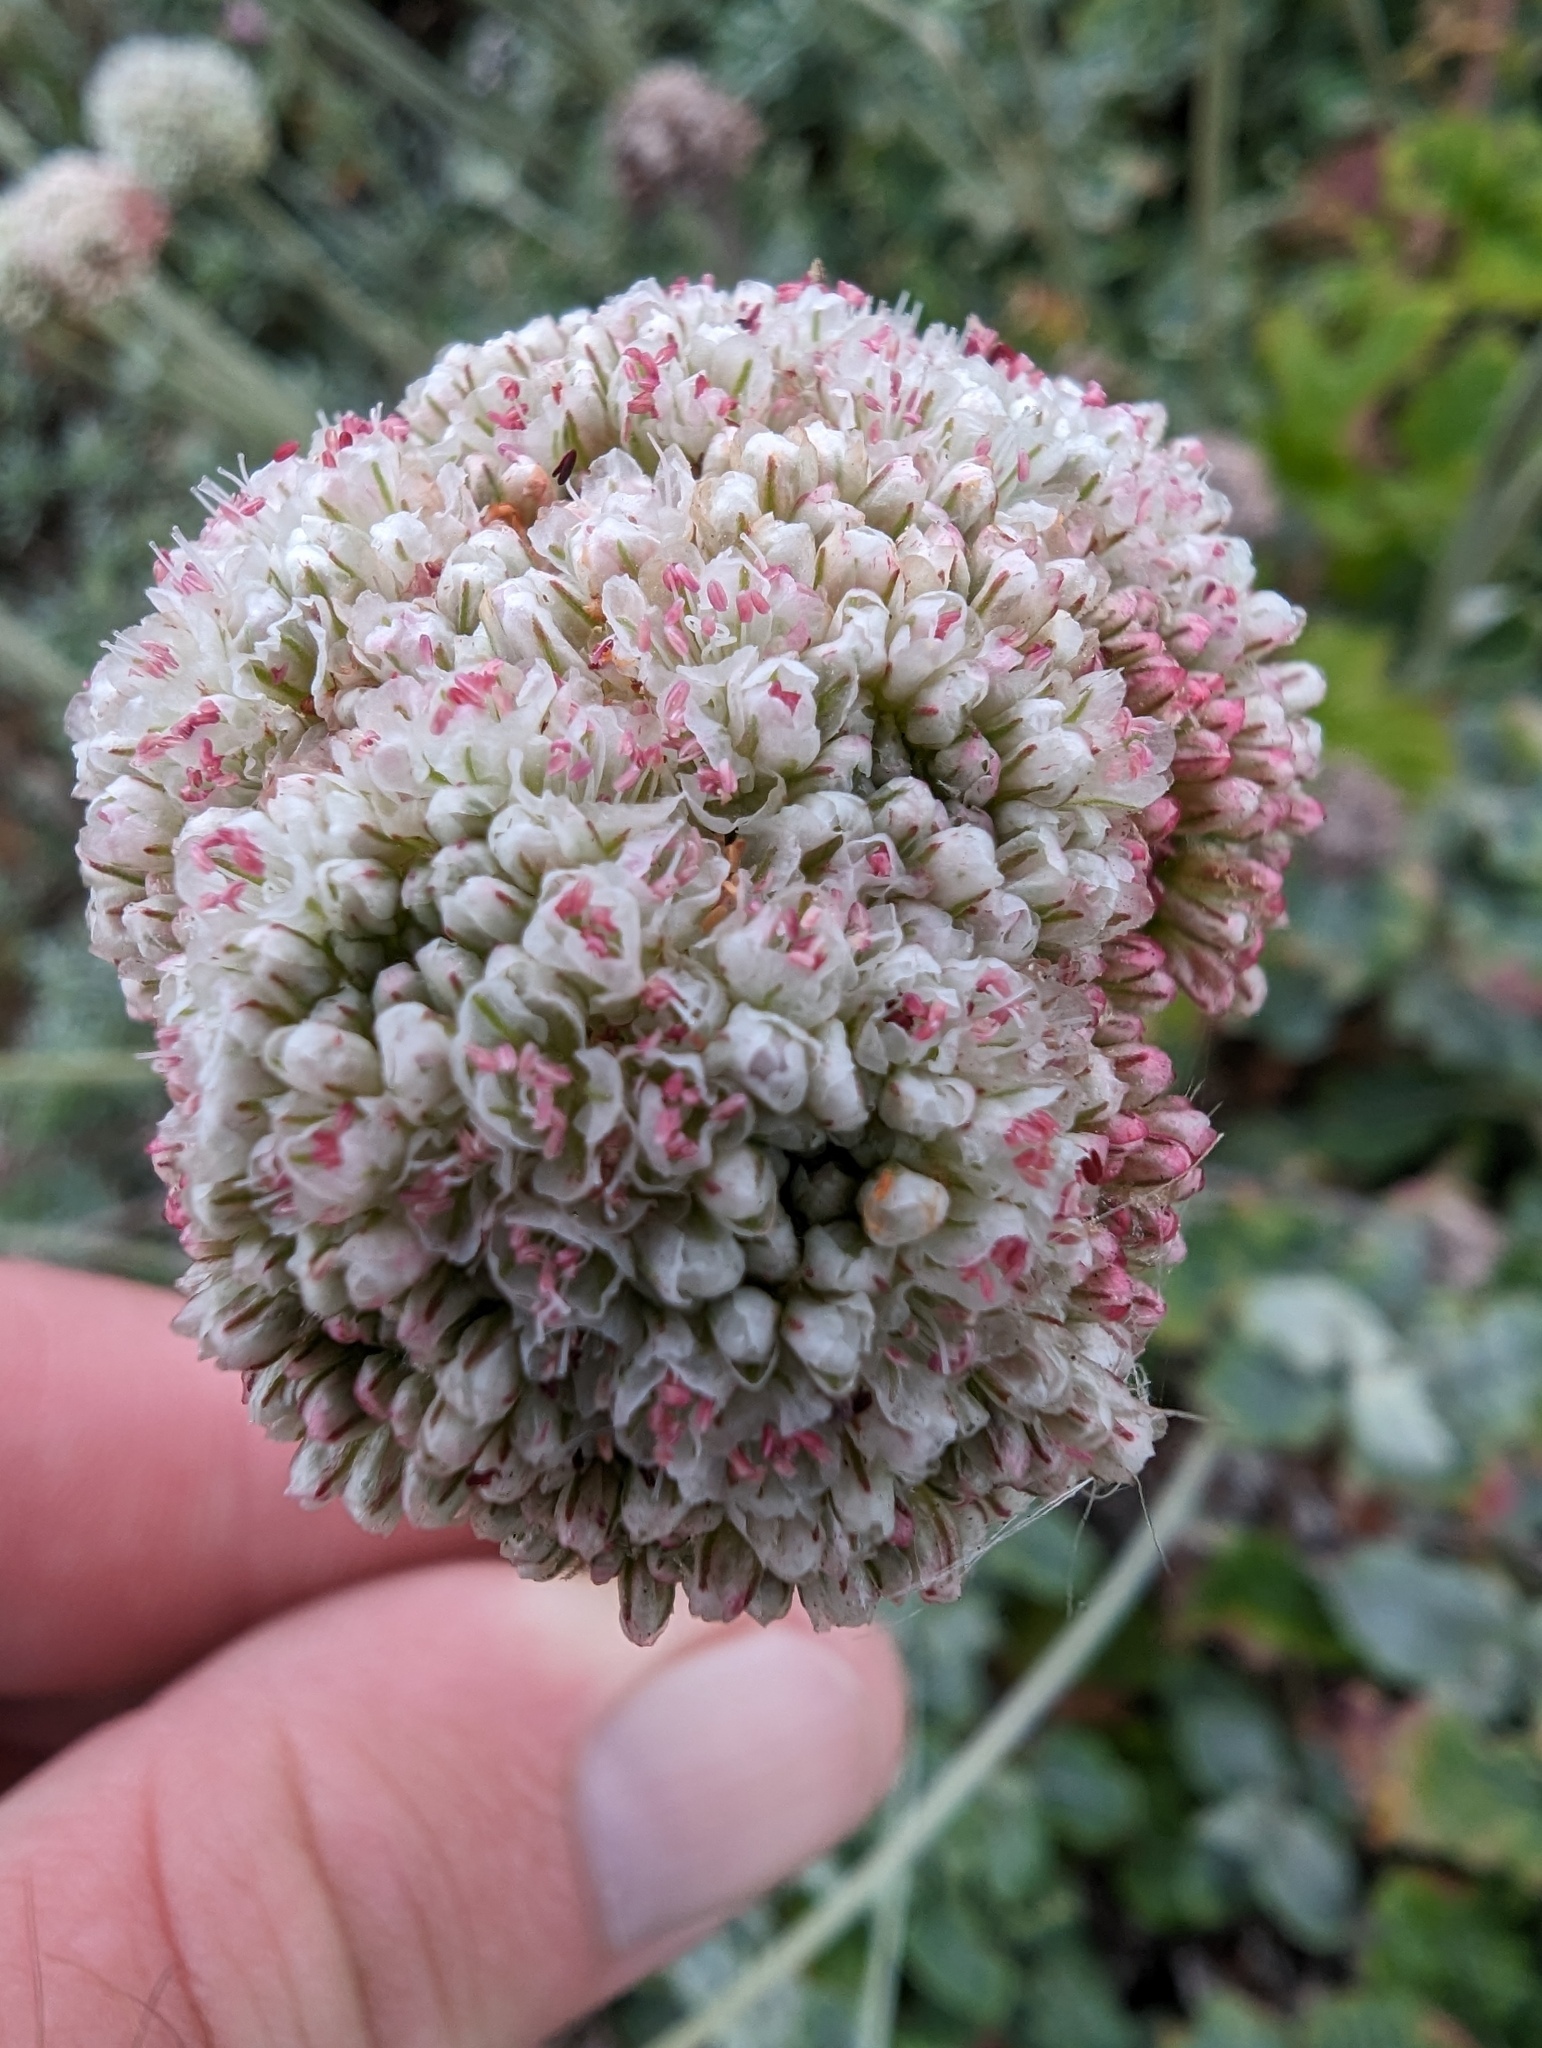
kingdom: Plantae
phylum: Tracheophyta
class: Magnoliopsida
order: Caryophyllales
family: Polygonaceae
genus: Eriogonum
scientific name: Eriogonum latifolium
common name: Seaside wild buckwheat
